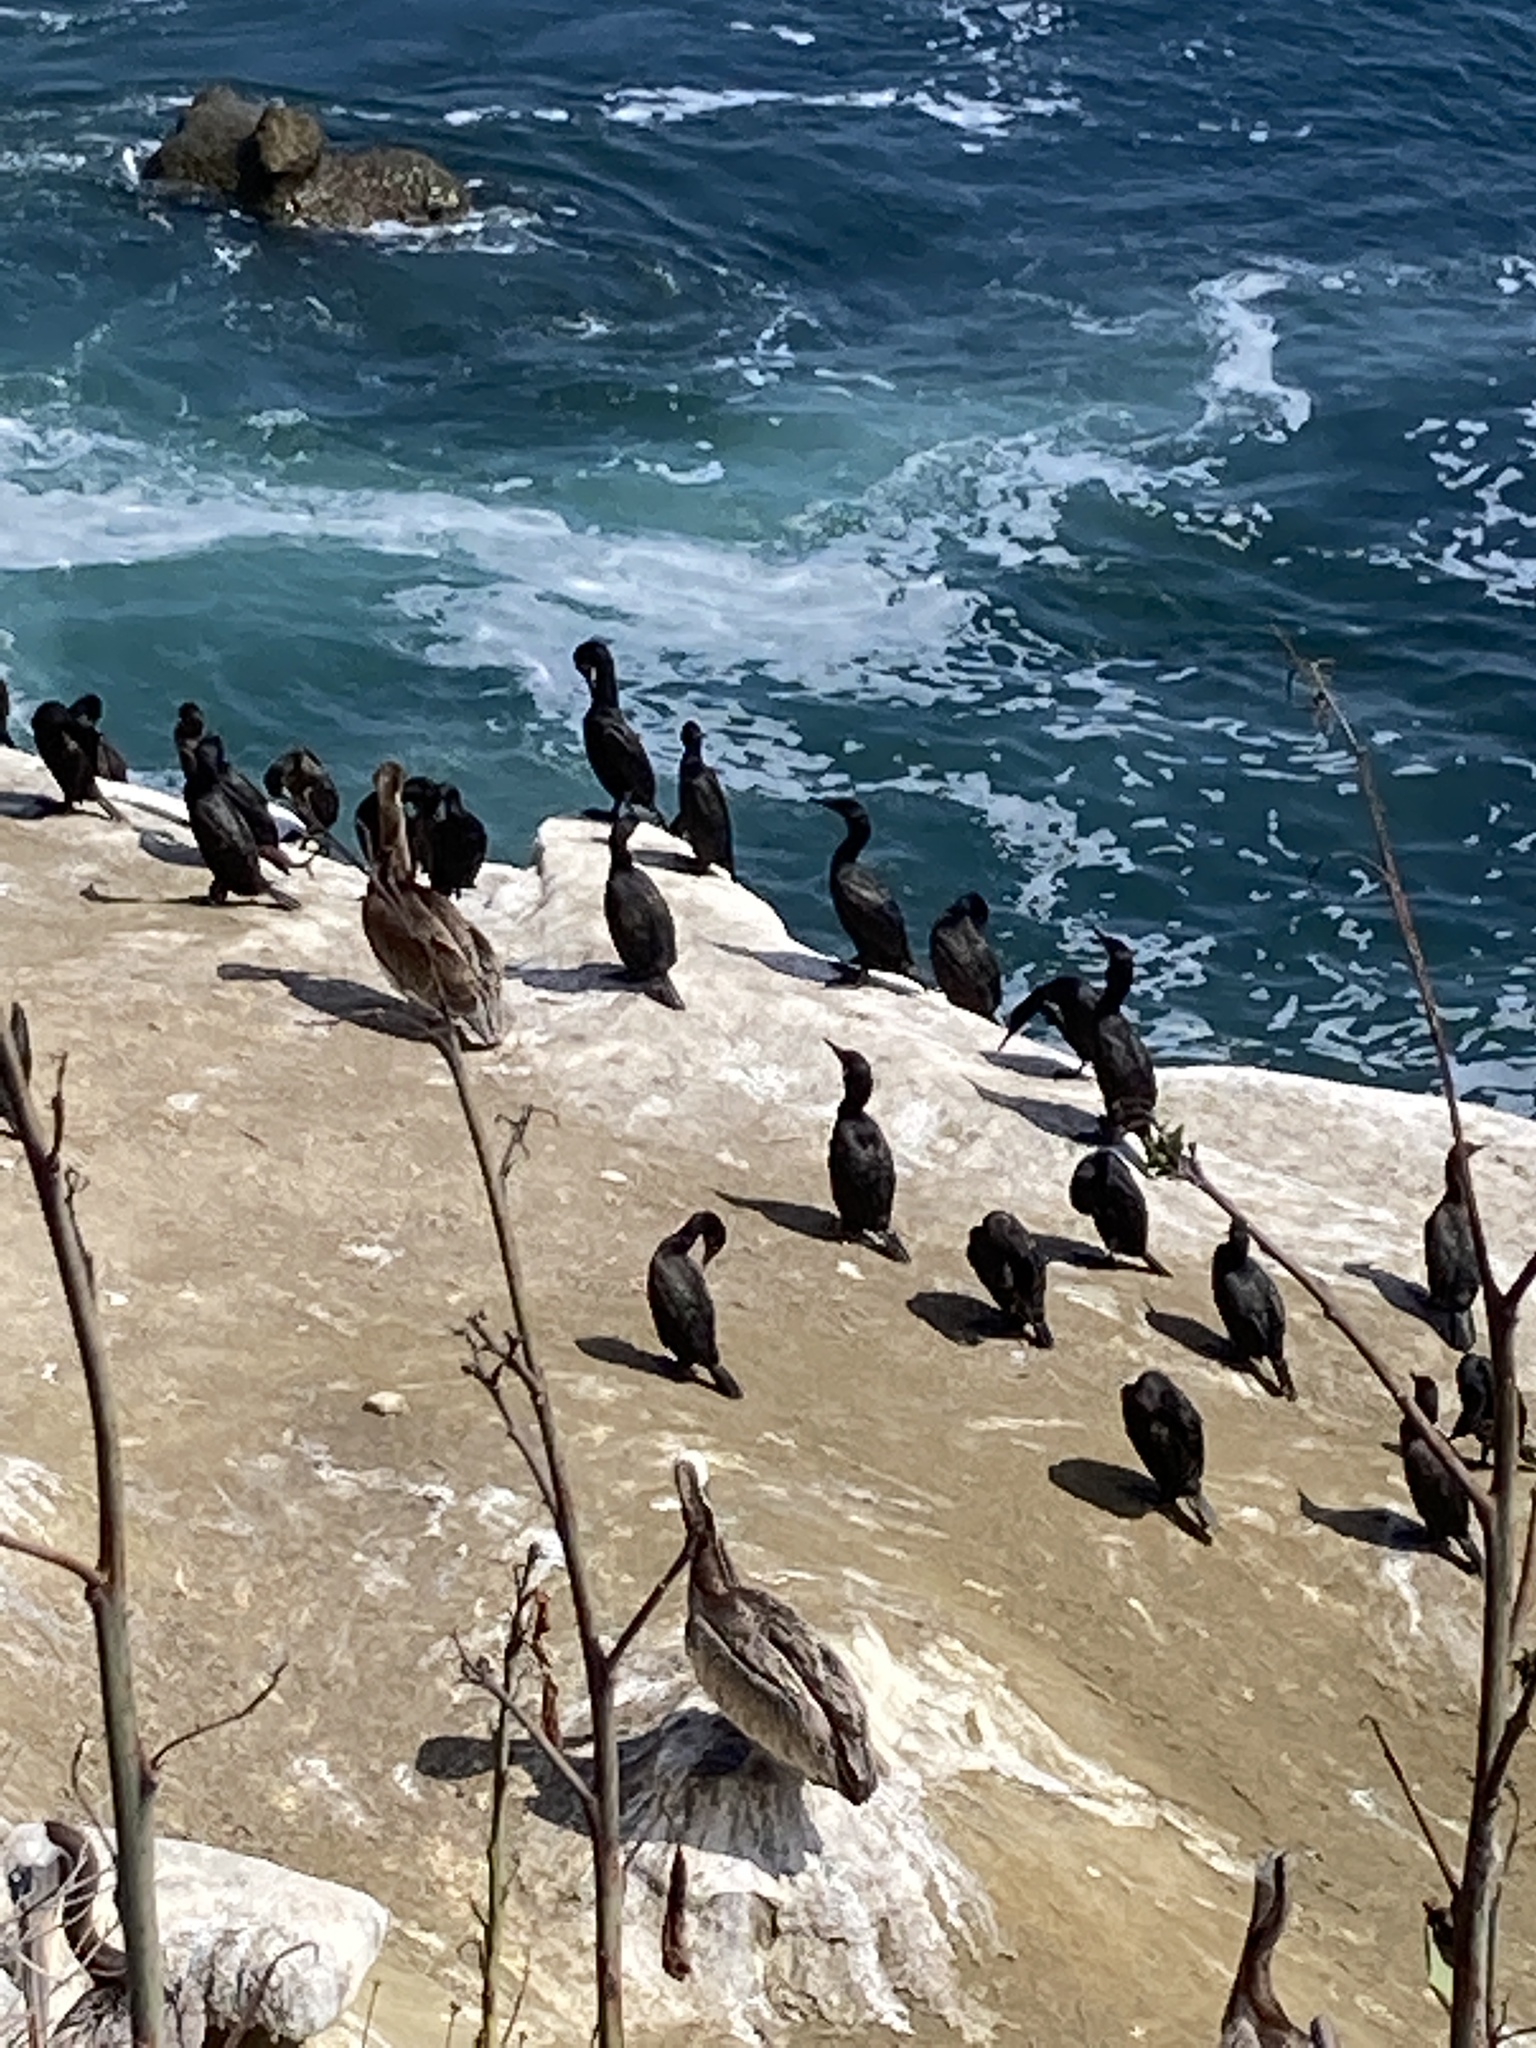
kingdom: Animalia
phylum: Chordata
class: Aves
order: Suliformes
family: Phalacrocoracidae
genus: Urile
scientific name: Urile penicillatus
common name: Brandt's cormorant
